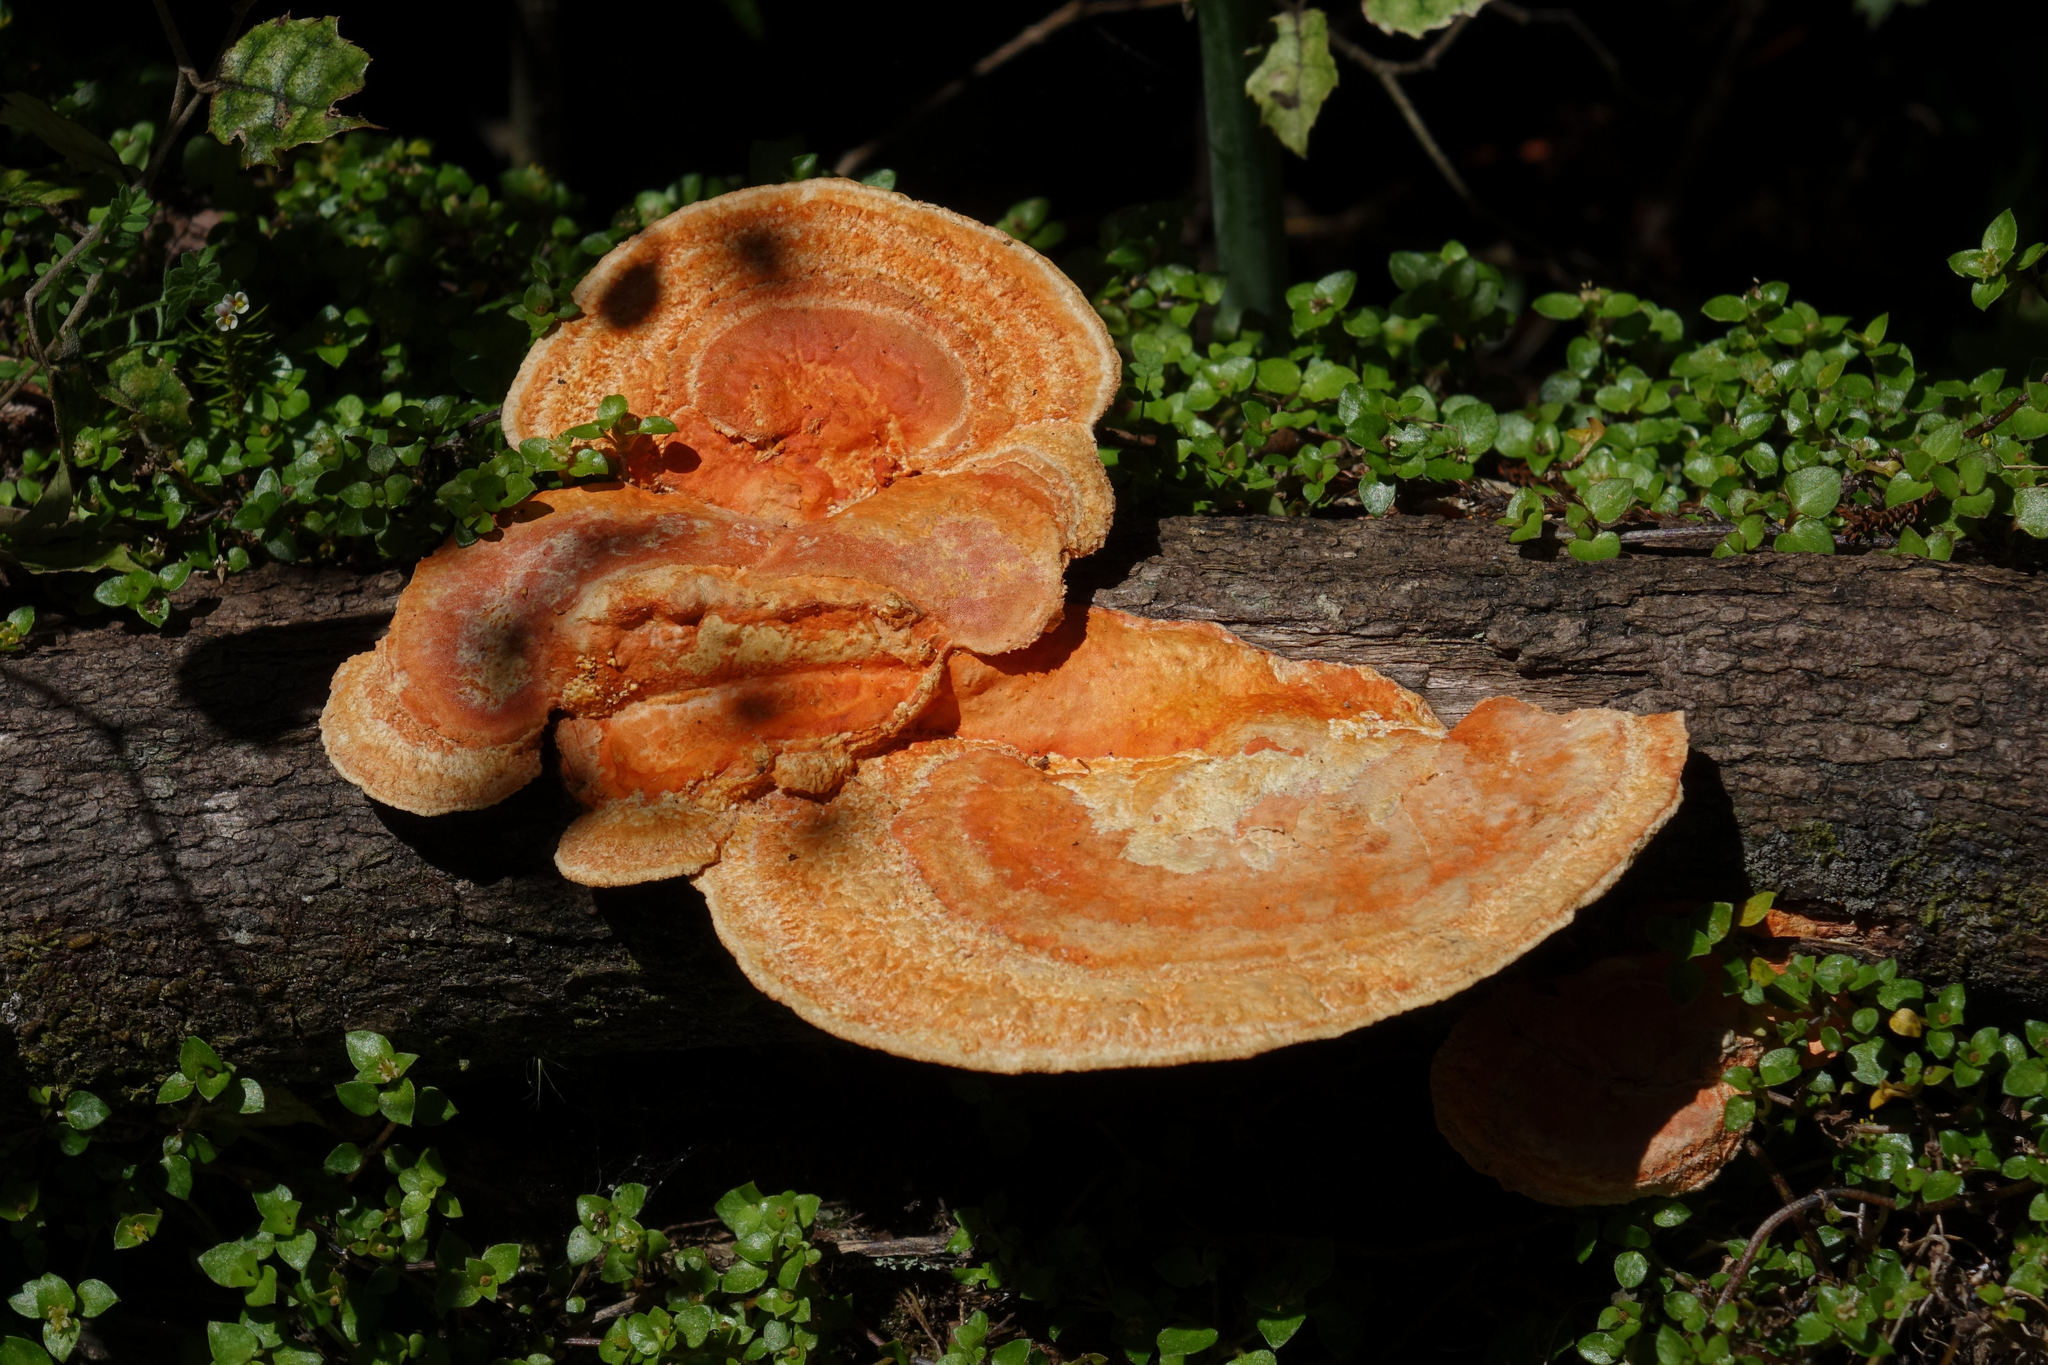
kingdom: Fungi
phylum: Basidiomycota
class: Agaricomycetes
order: Polyporales
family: Polyporaceae
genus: Trametes
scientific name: Trametes coccinea
